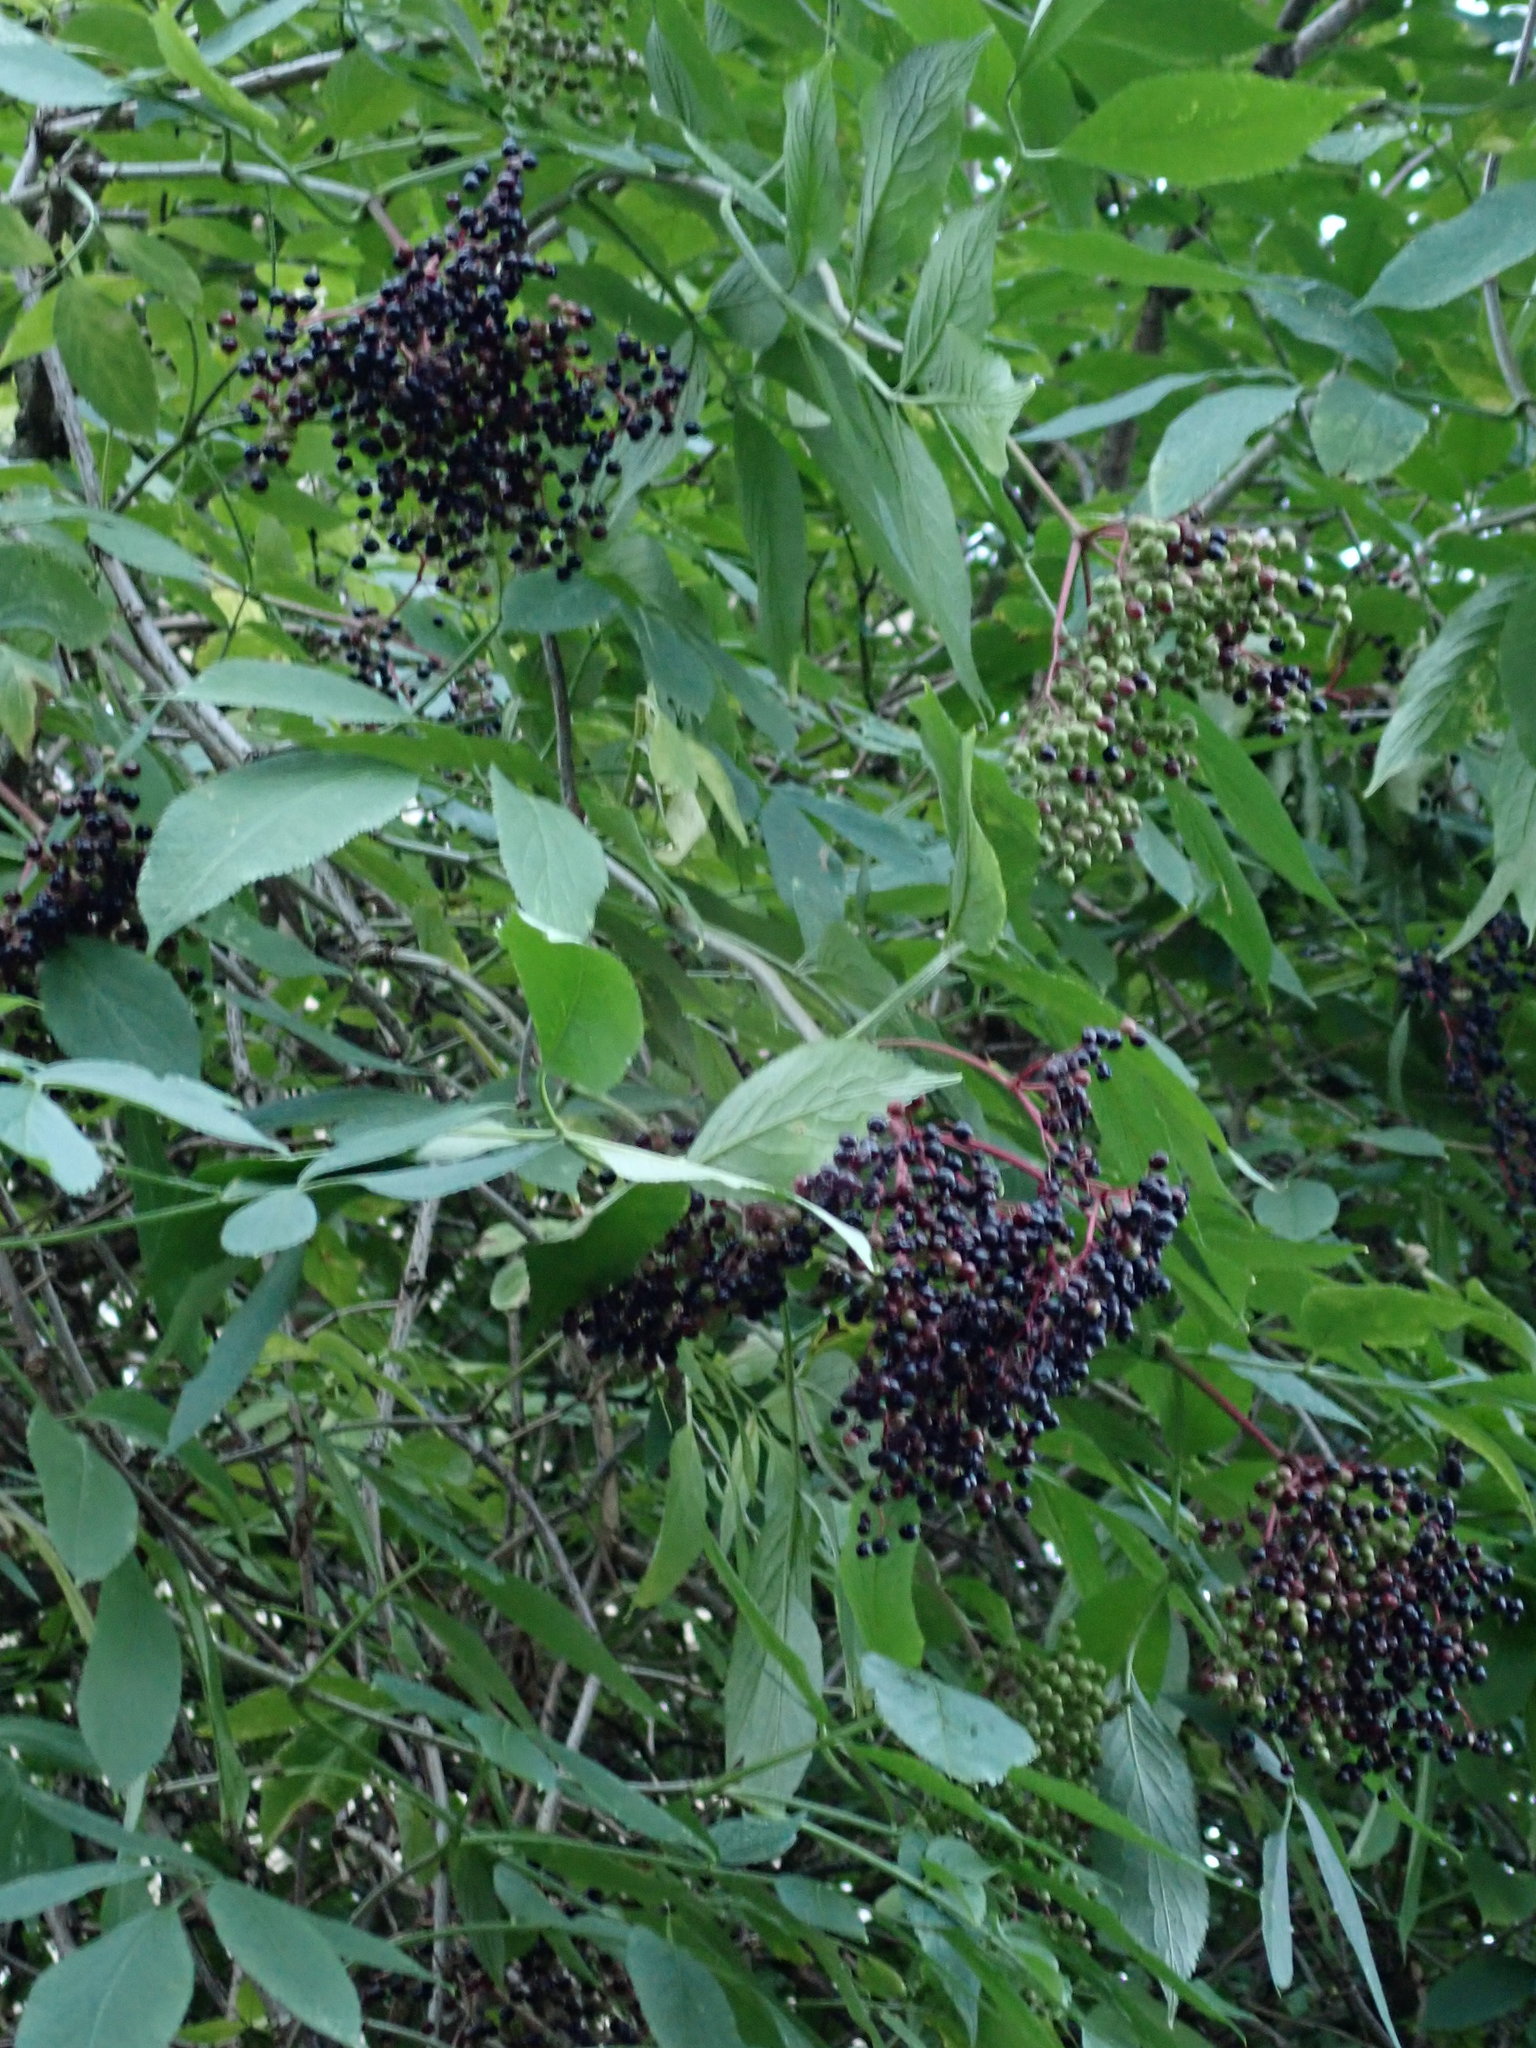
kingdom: Plantae
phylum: Tracheophyta
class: Magnoliopsida
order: Dipsacales
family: Viburnaceae
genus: Sambucus
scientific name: Sambucus nigra
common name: Elder
